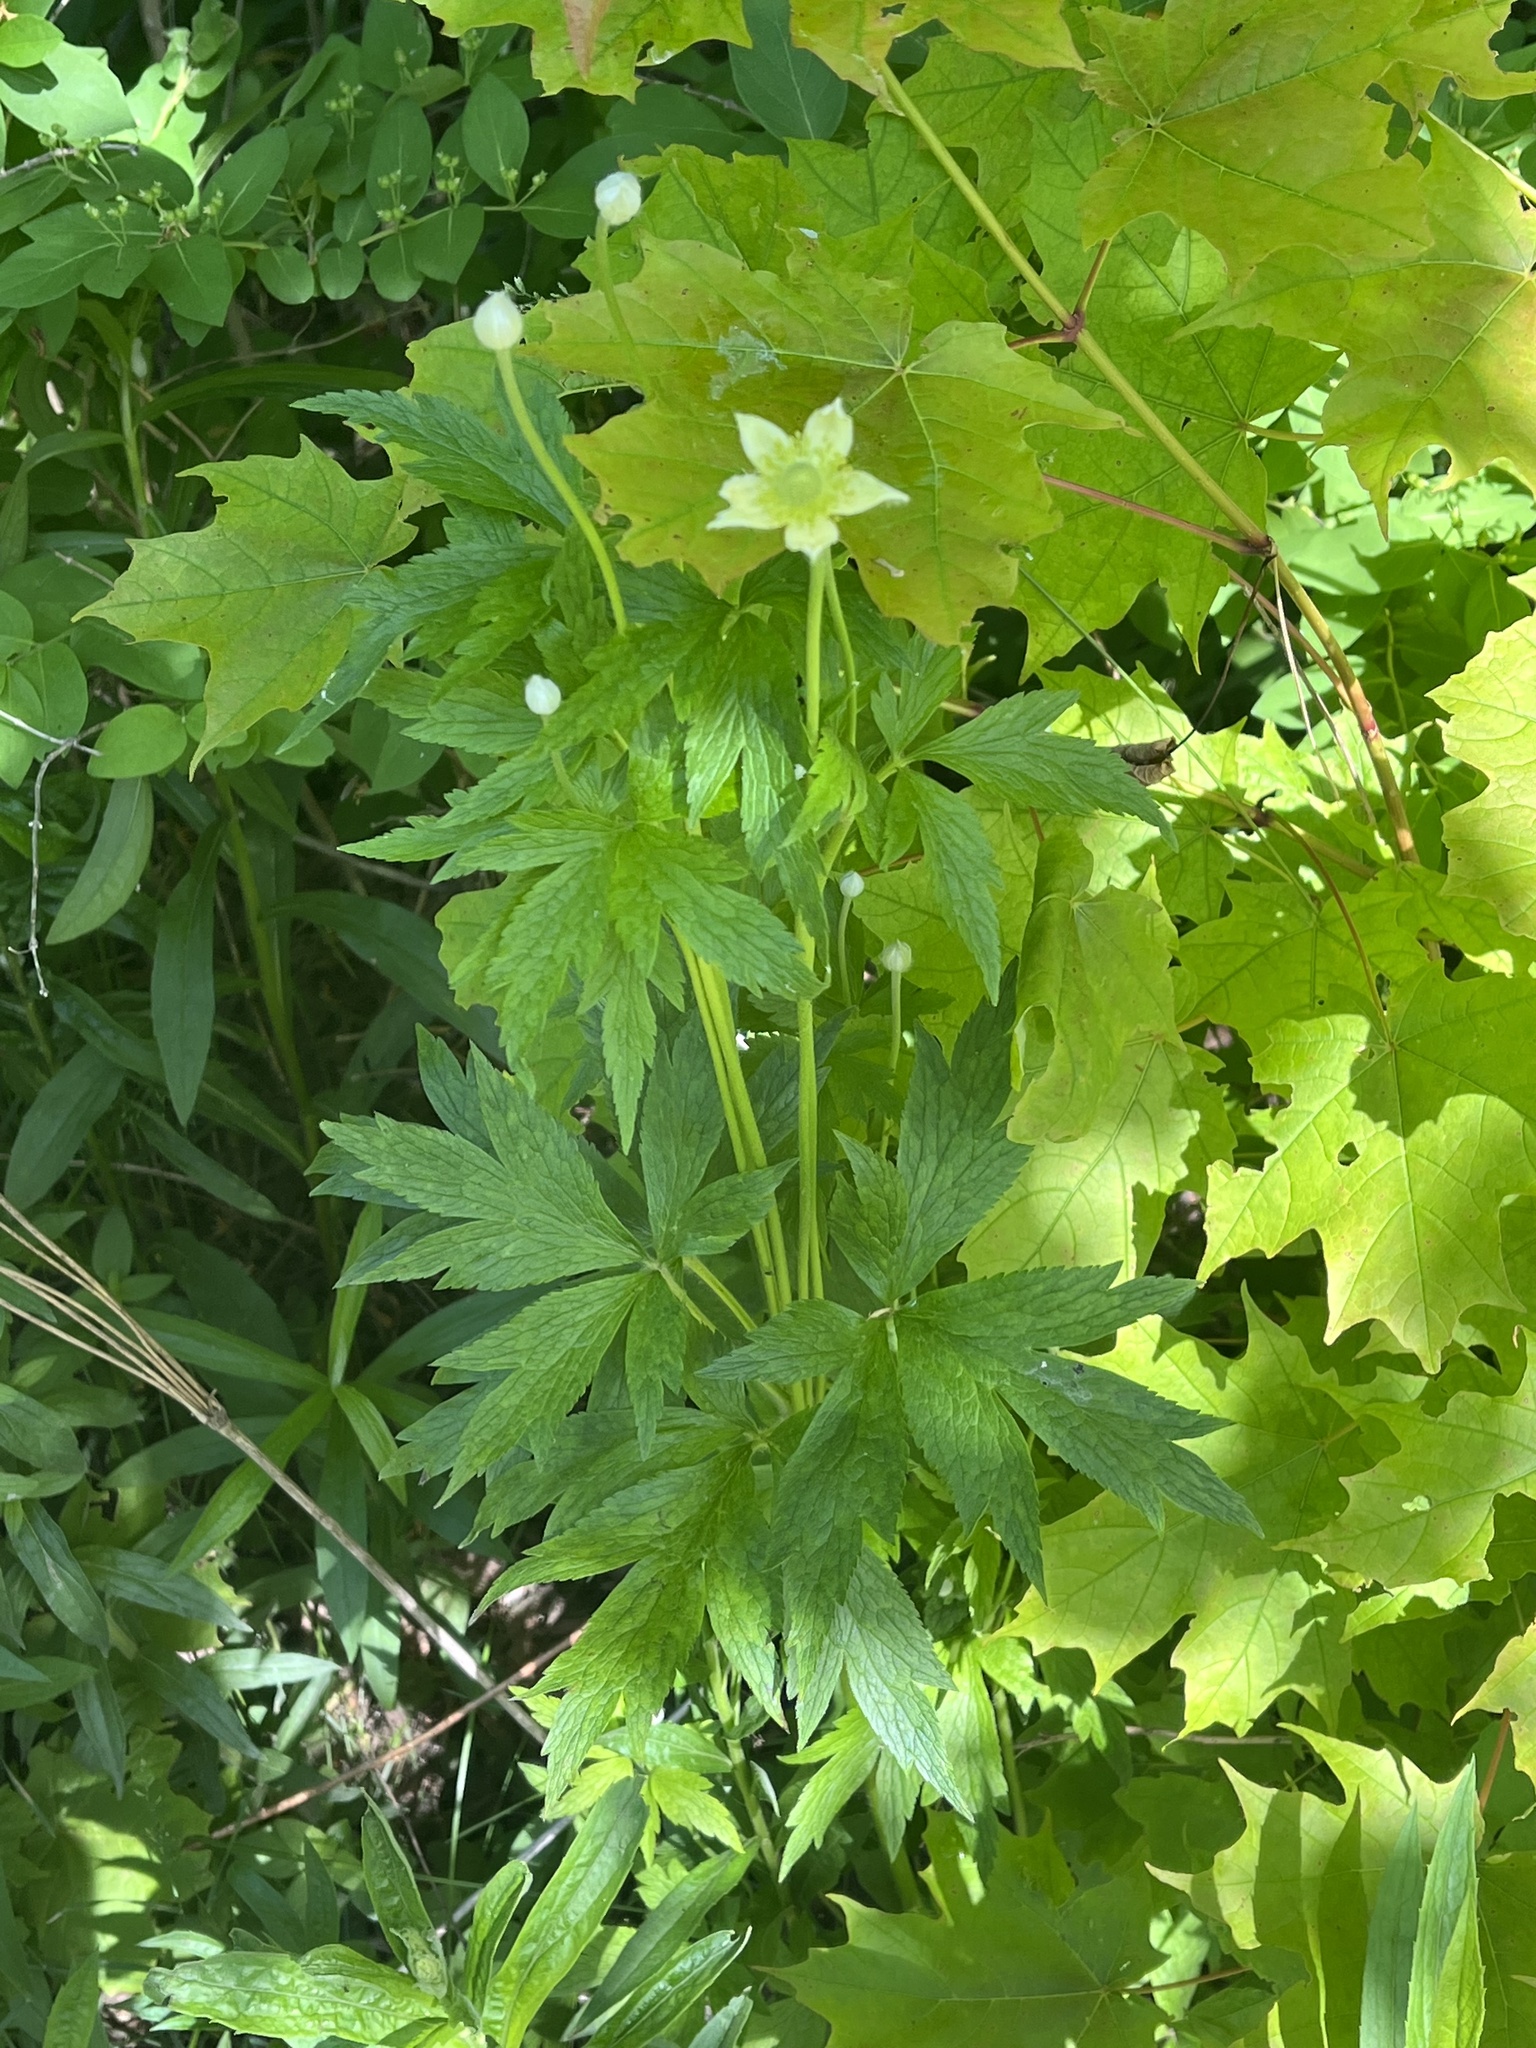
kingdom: Plantae
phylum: Tracheophyta
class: Magnoliopsida
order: Ranunculales
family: Ranunculaceae
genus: Anemone
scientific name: Anemone virginiana
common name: Tall anemone
